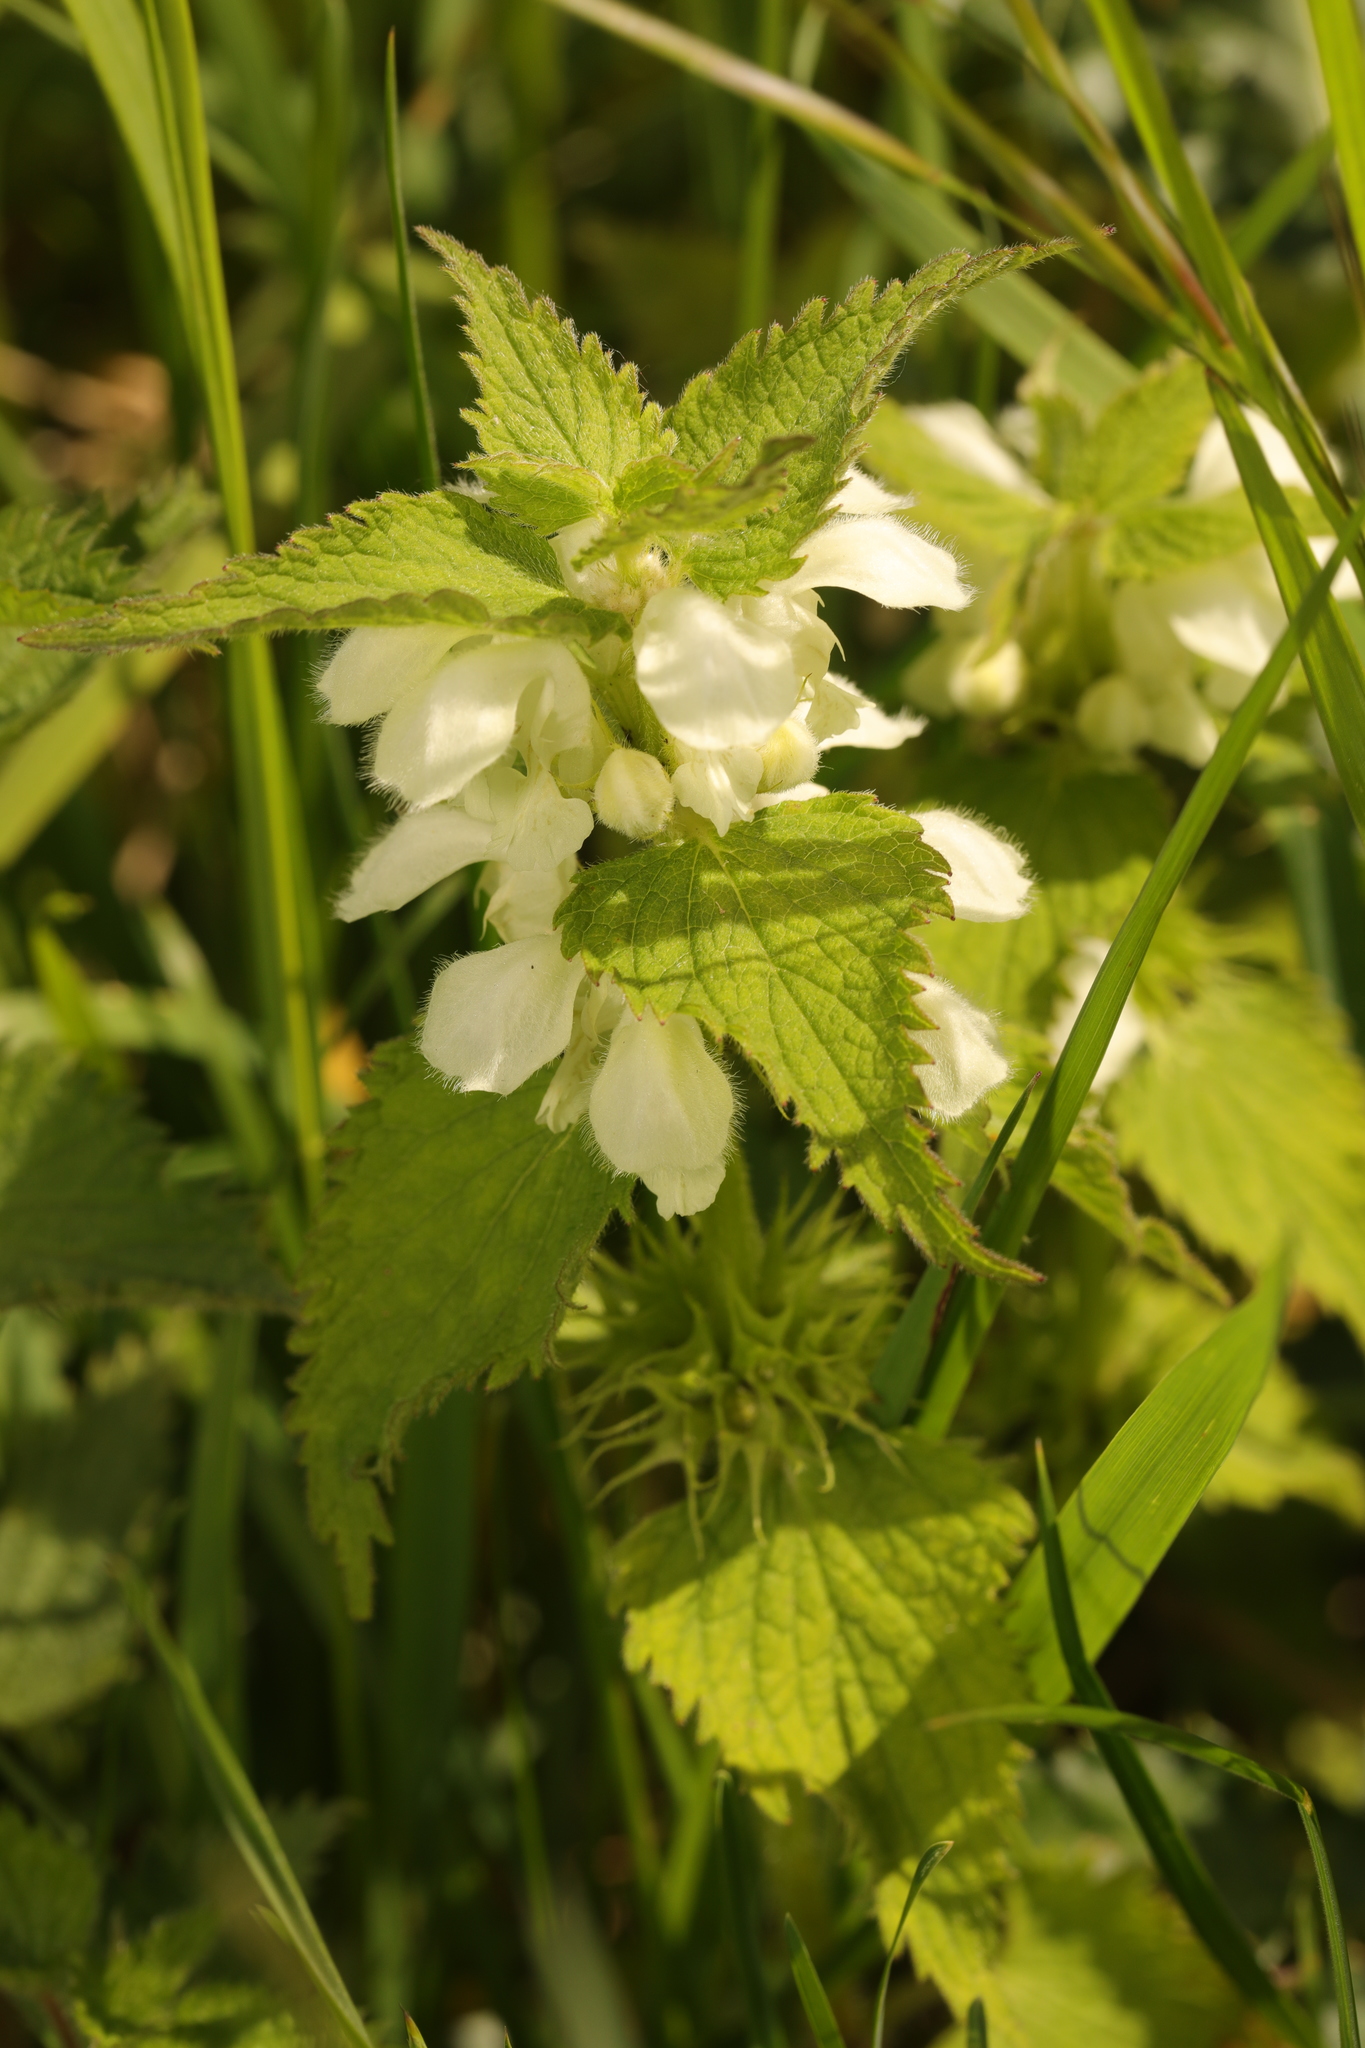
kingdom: Plantae
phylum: Tracheophyta
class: Magnoliopsida
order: Lamiales
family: Lamiaceae
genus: Lamium
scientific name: Lamium album
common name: White dead-nettle
